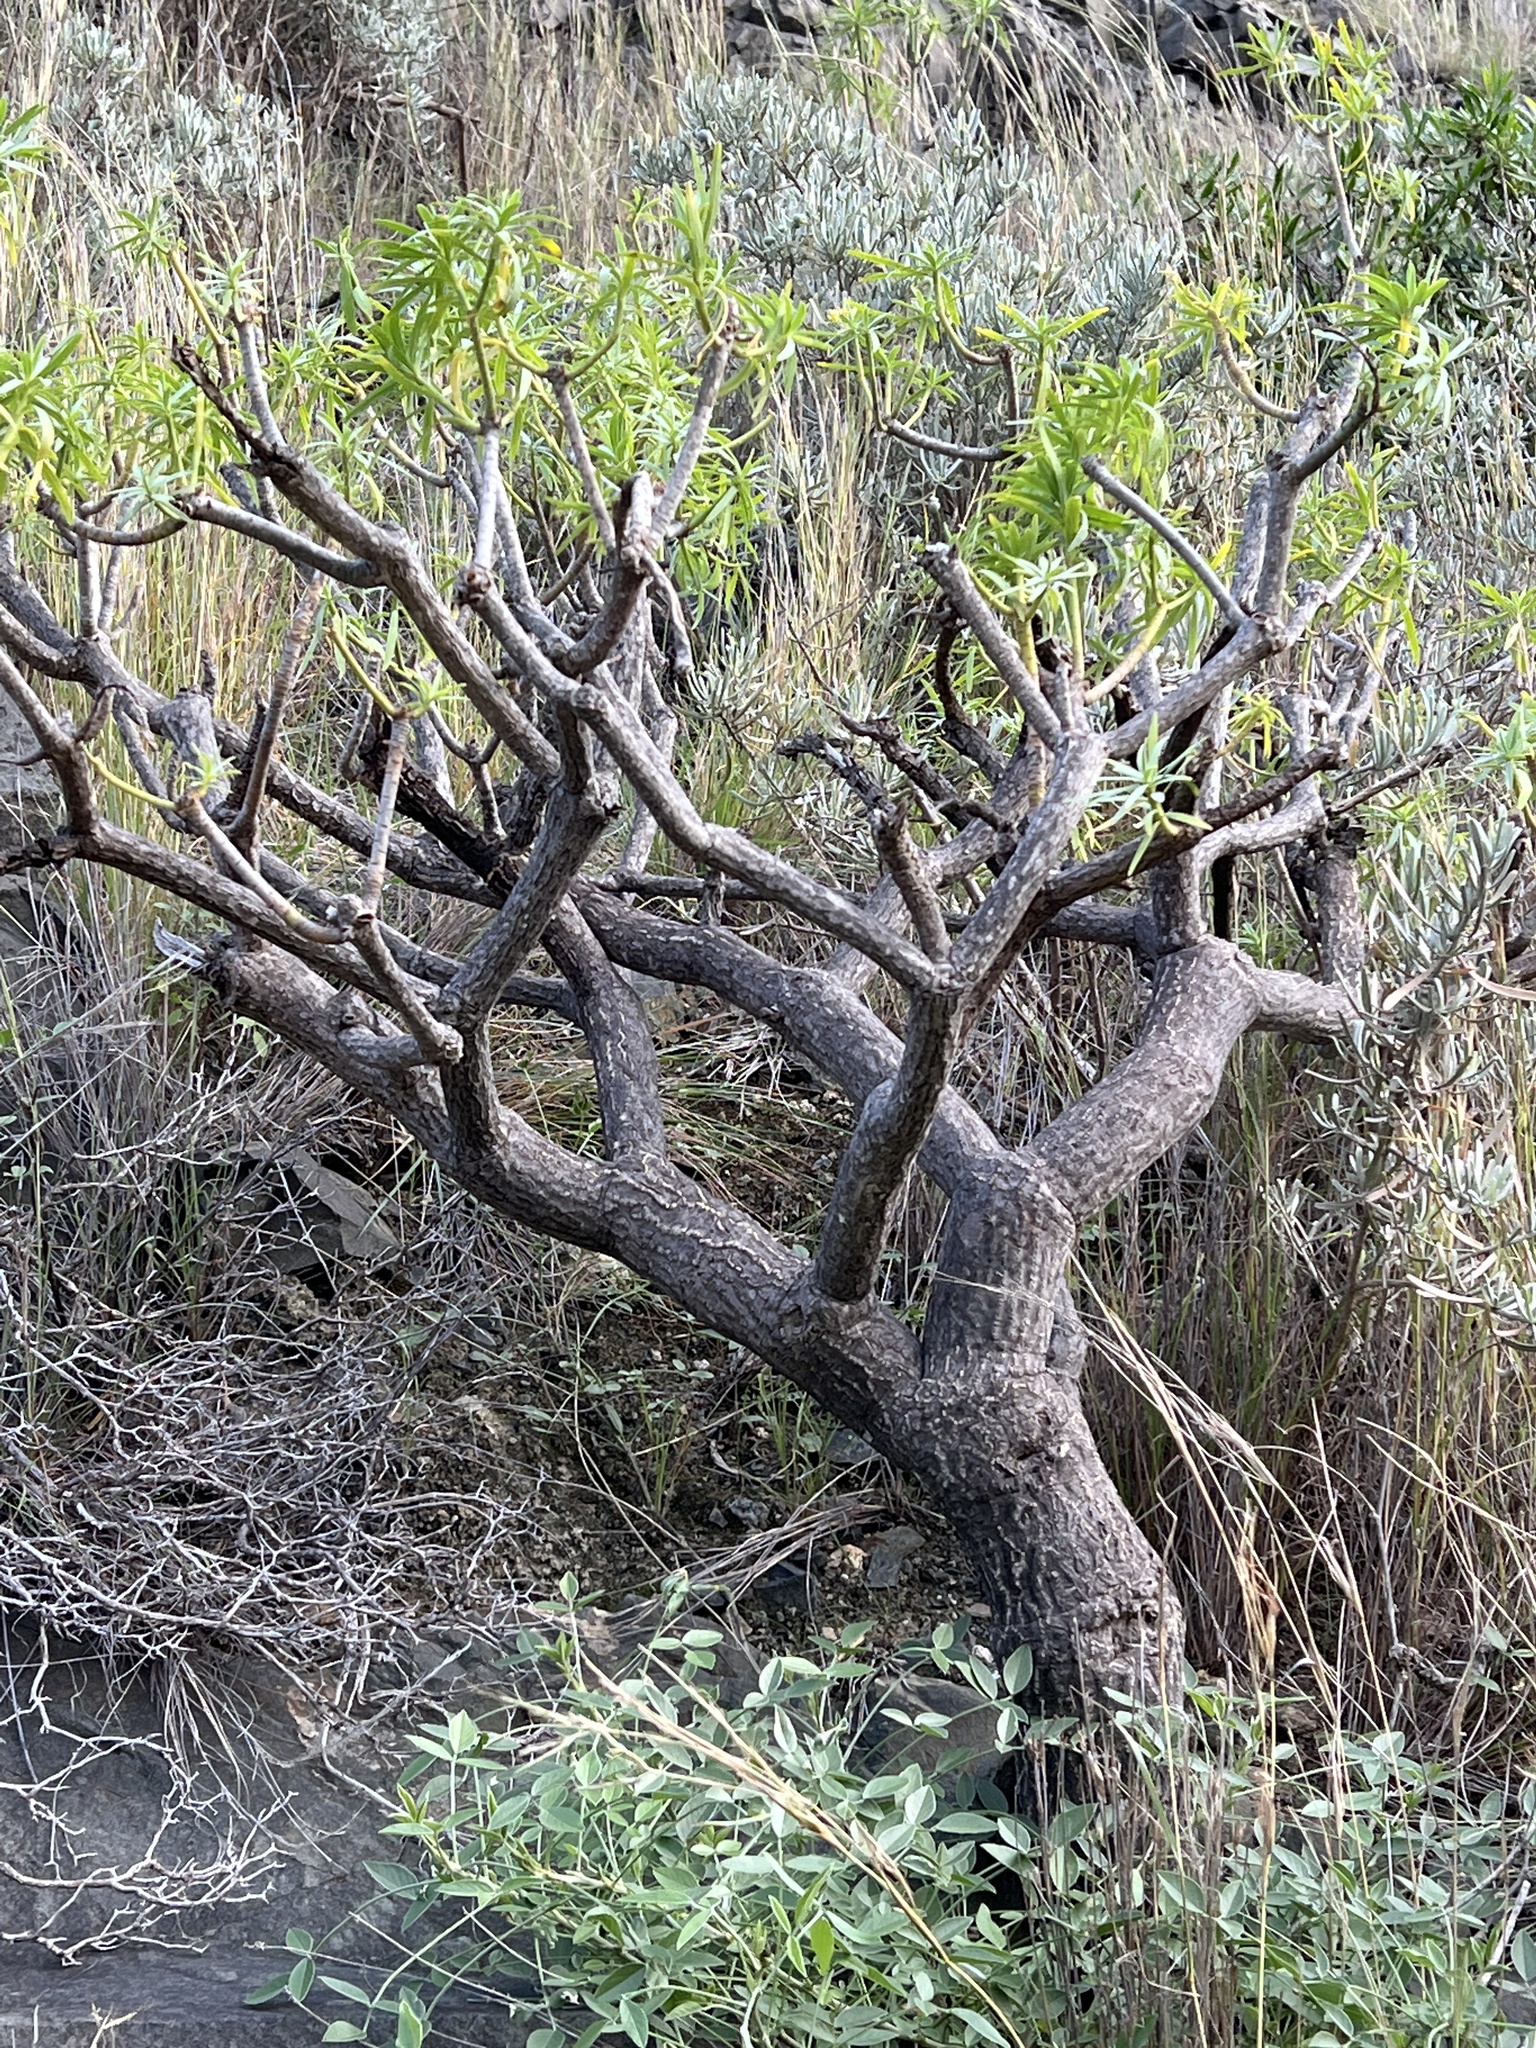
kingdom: Plantae
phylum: Tracheophyta
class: Magnoliopsida
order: Malpighiales
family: Euphorbiaceae
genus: Euphorbia
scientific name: Euphorbia lamarckii
